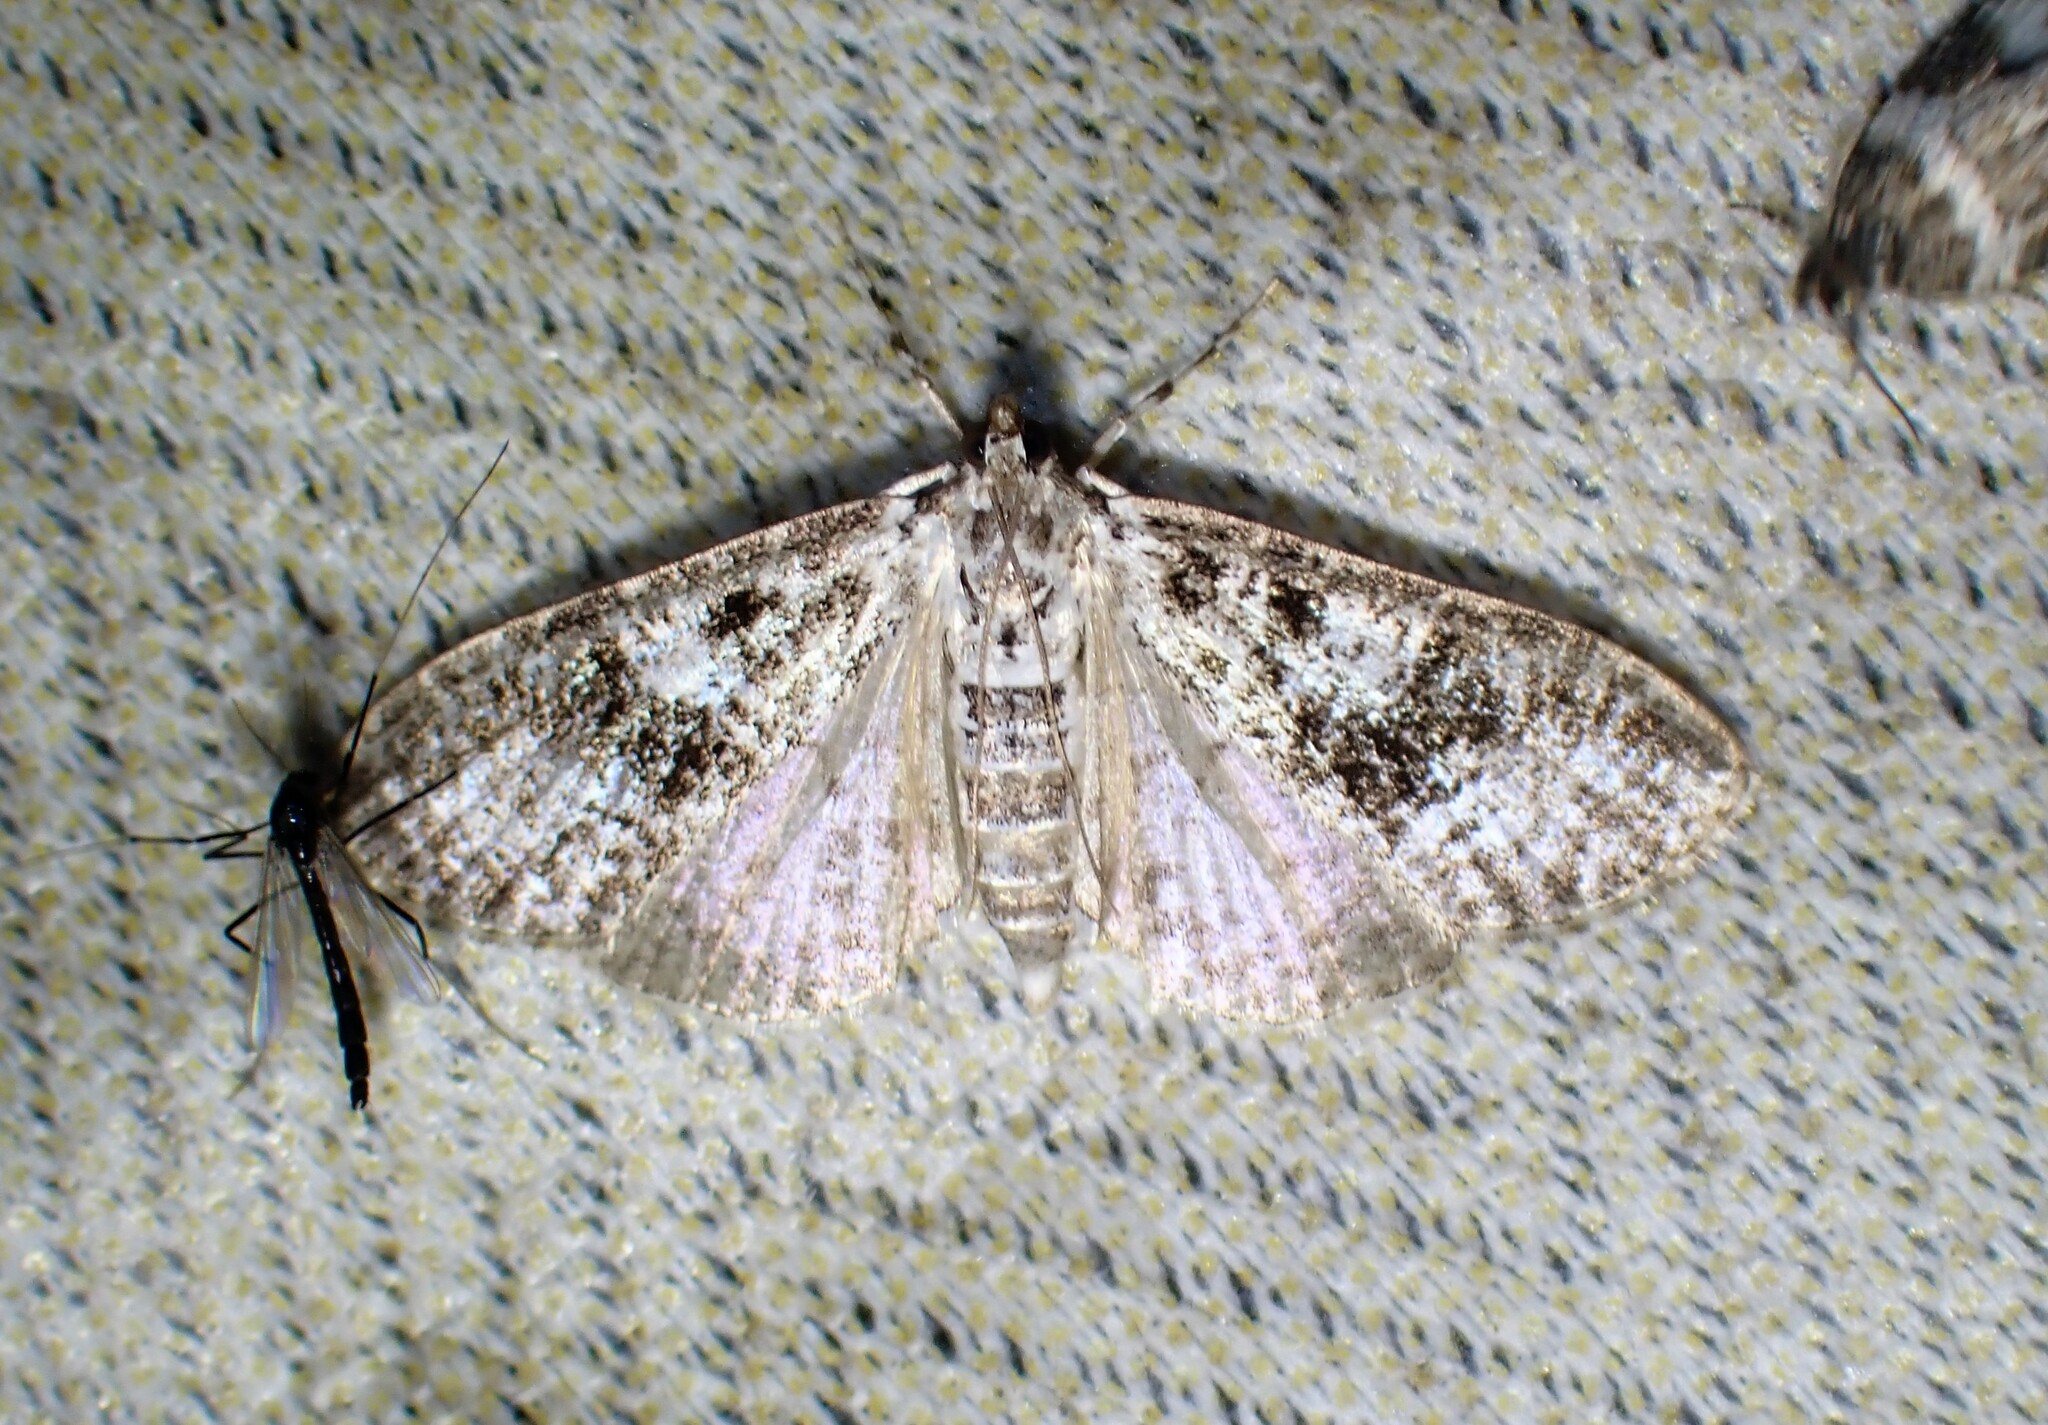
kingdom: Animalia
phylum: Arthropoda
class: Insecta
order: Lepidoptera
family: Crambidae
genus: Palpita
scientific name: Palpita magniferalis
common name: Splendid palpita moth
